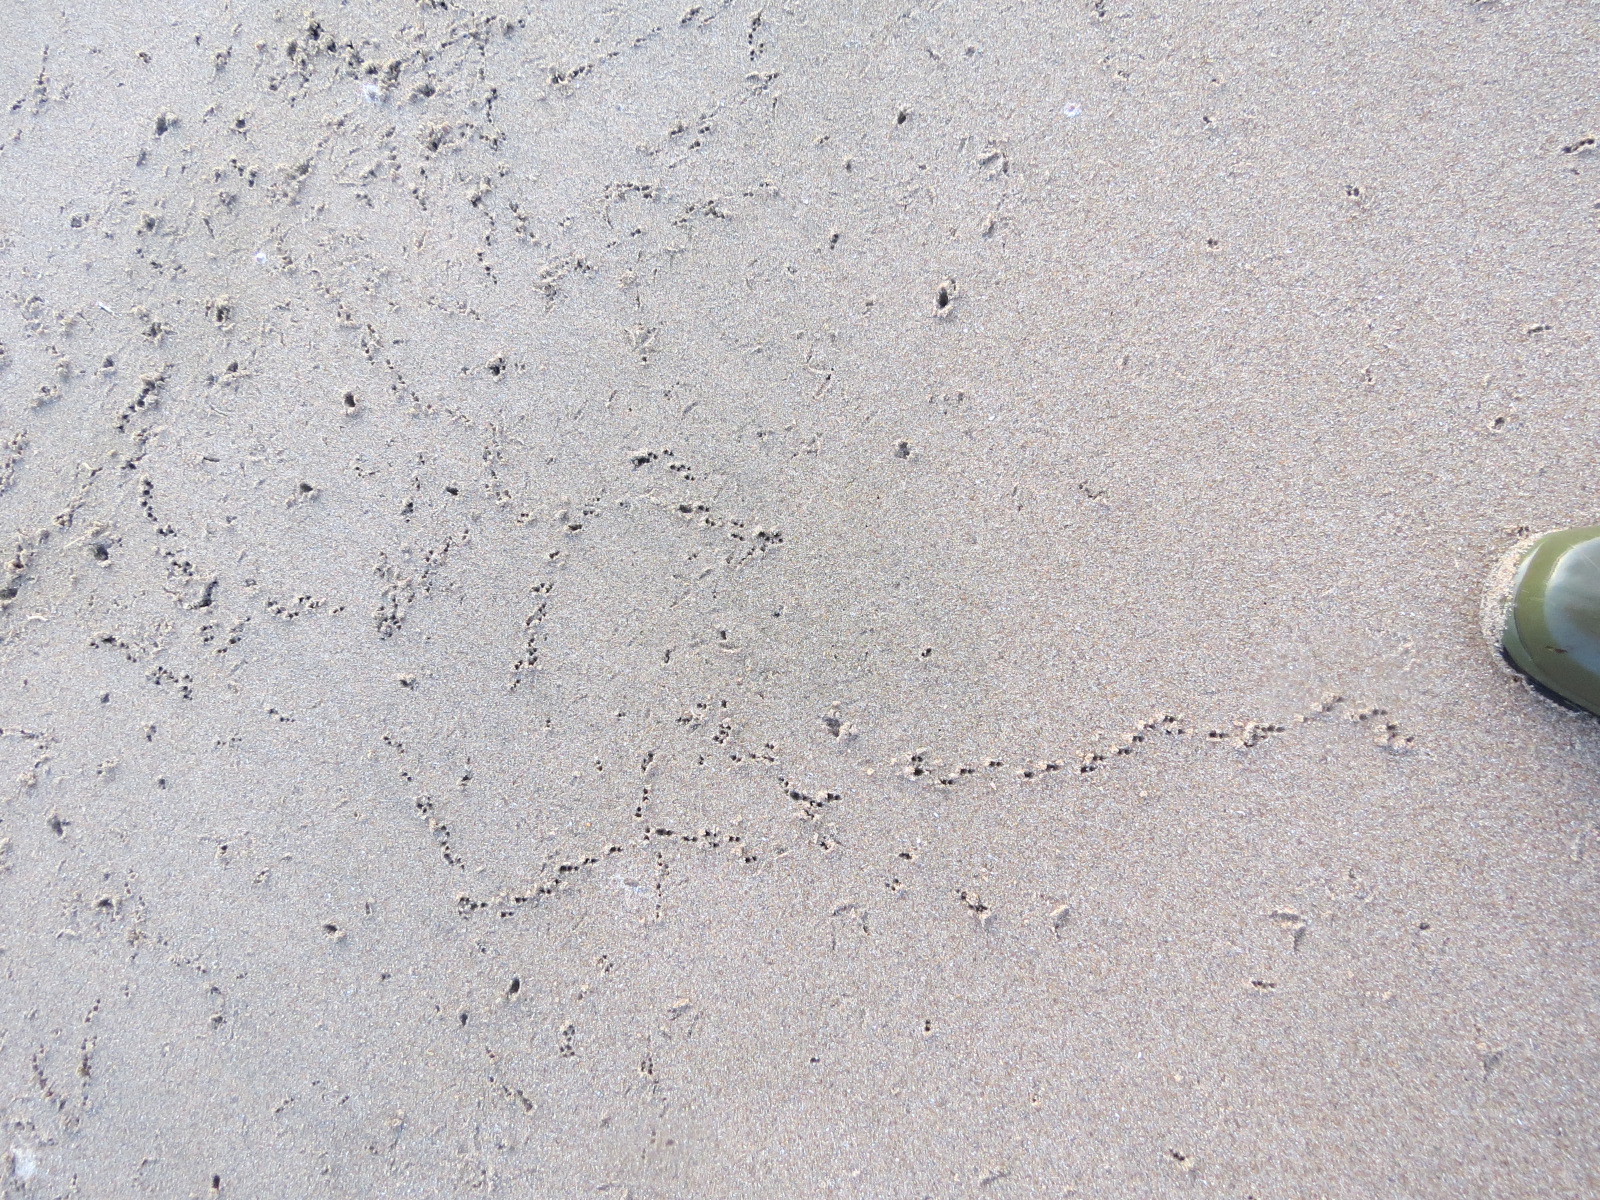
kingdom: Animalia
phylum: Chordata
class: Aves
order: Charadriiformes
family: Scolopacidae
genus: Calidris
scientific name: Calidris alba
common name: Sanderling
